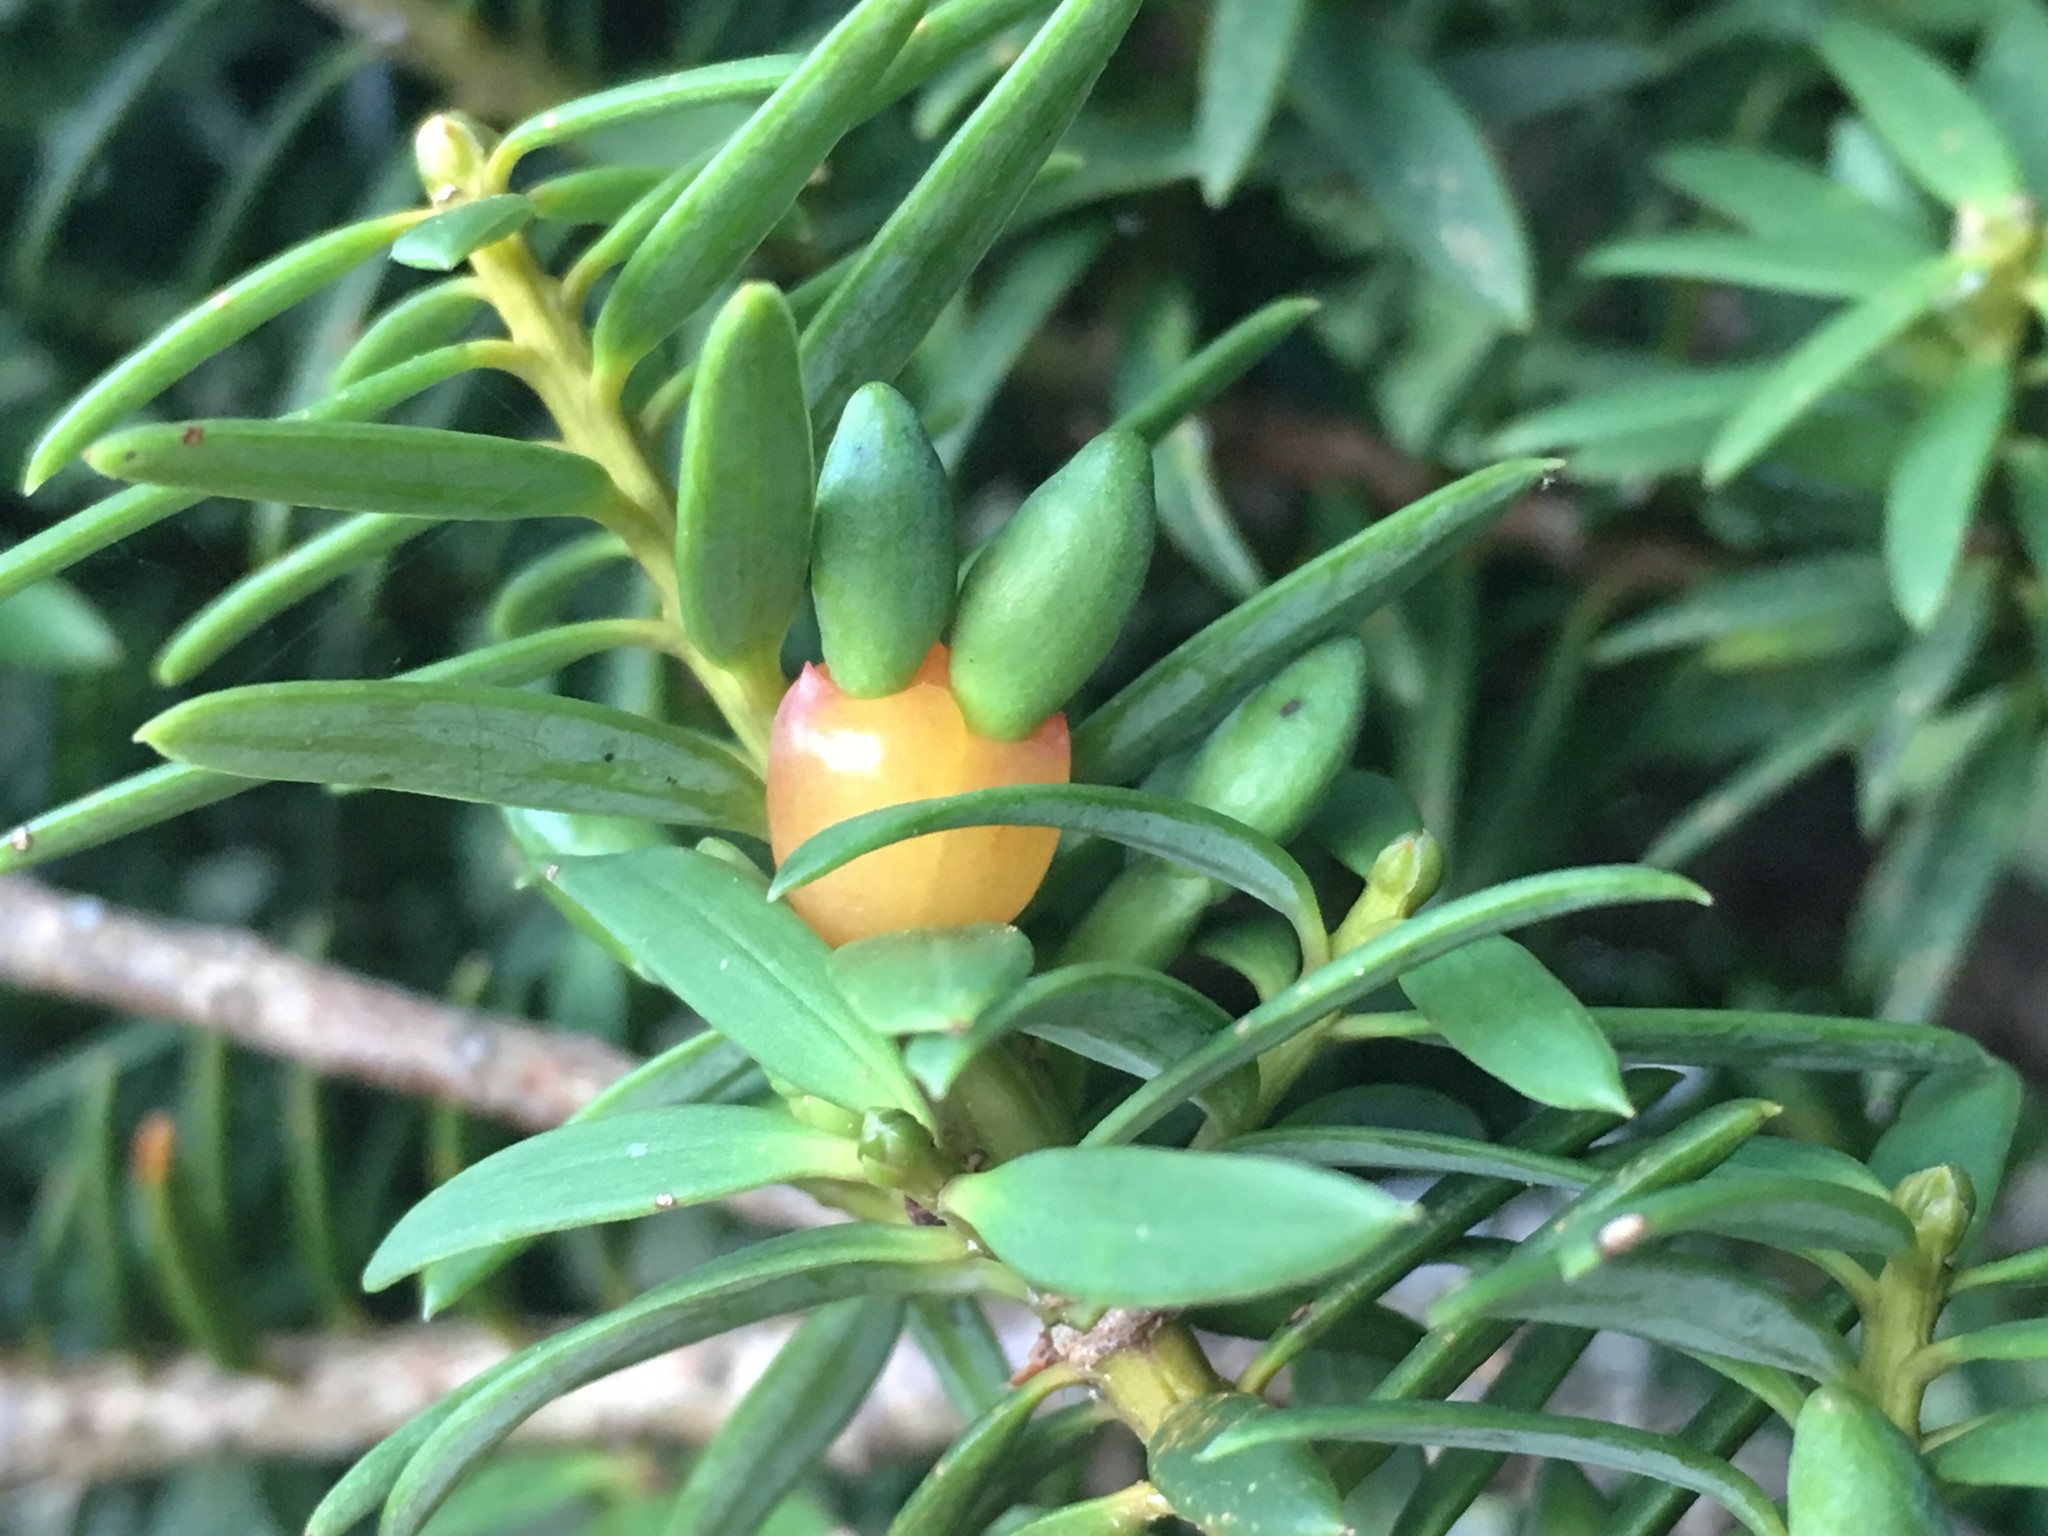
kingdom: Plantae
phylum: Tracheophyta
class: Pinopsida
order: Pinales
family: Podocarpaceae
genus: Podocarpus
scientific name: Podocarpus laetus
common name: Hall's totara
